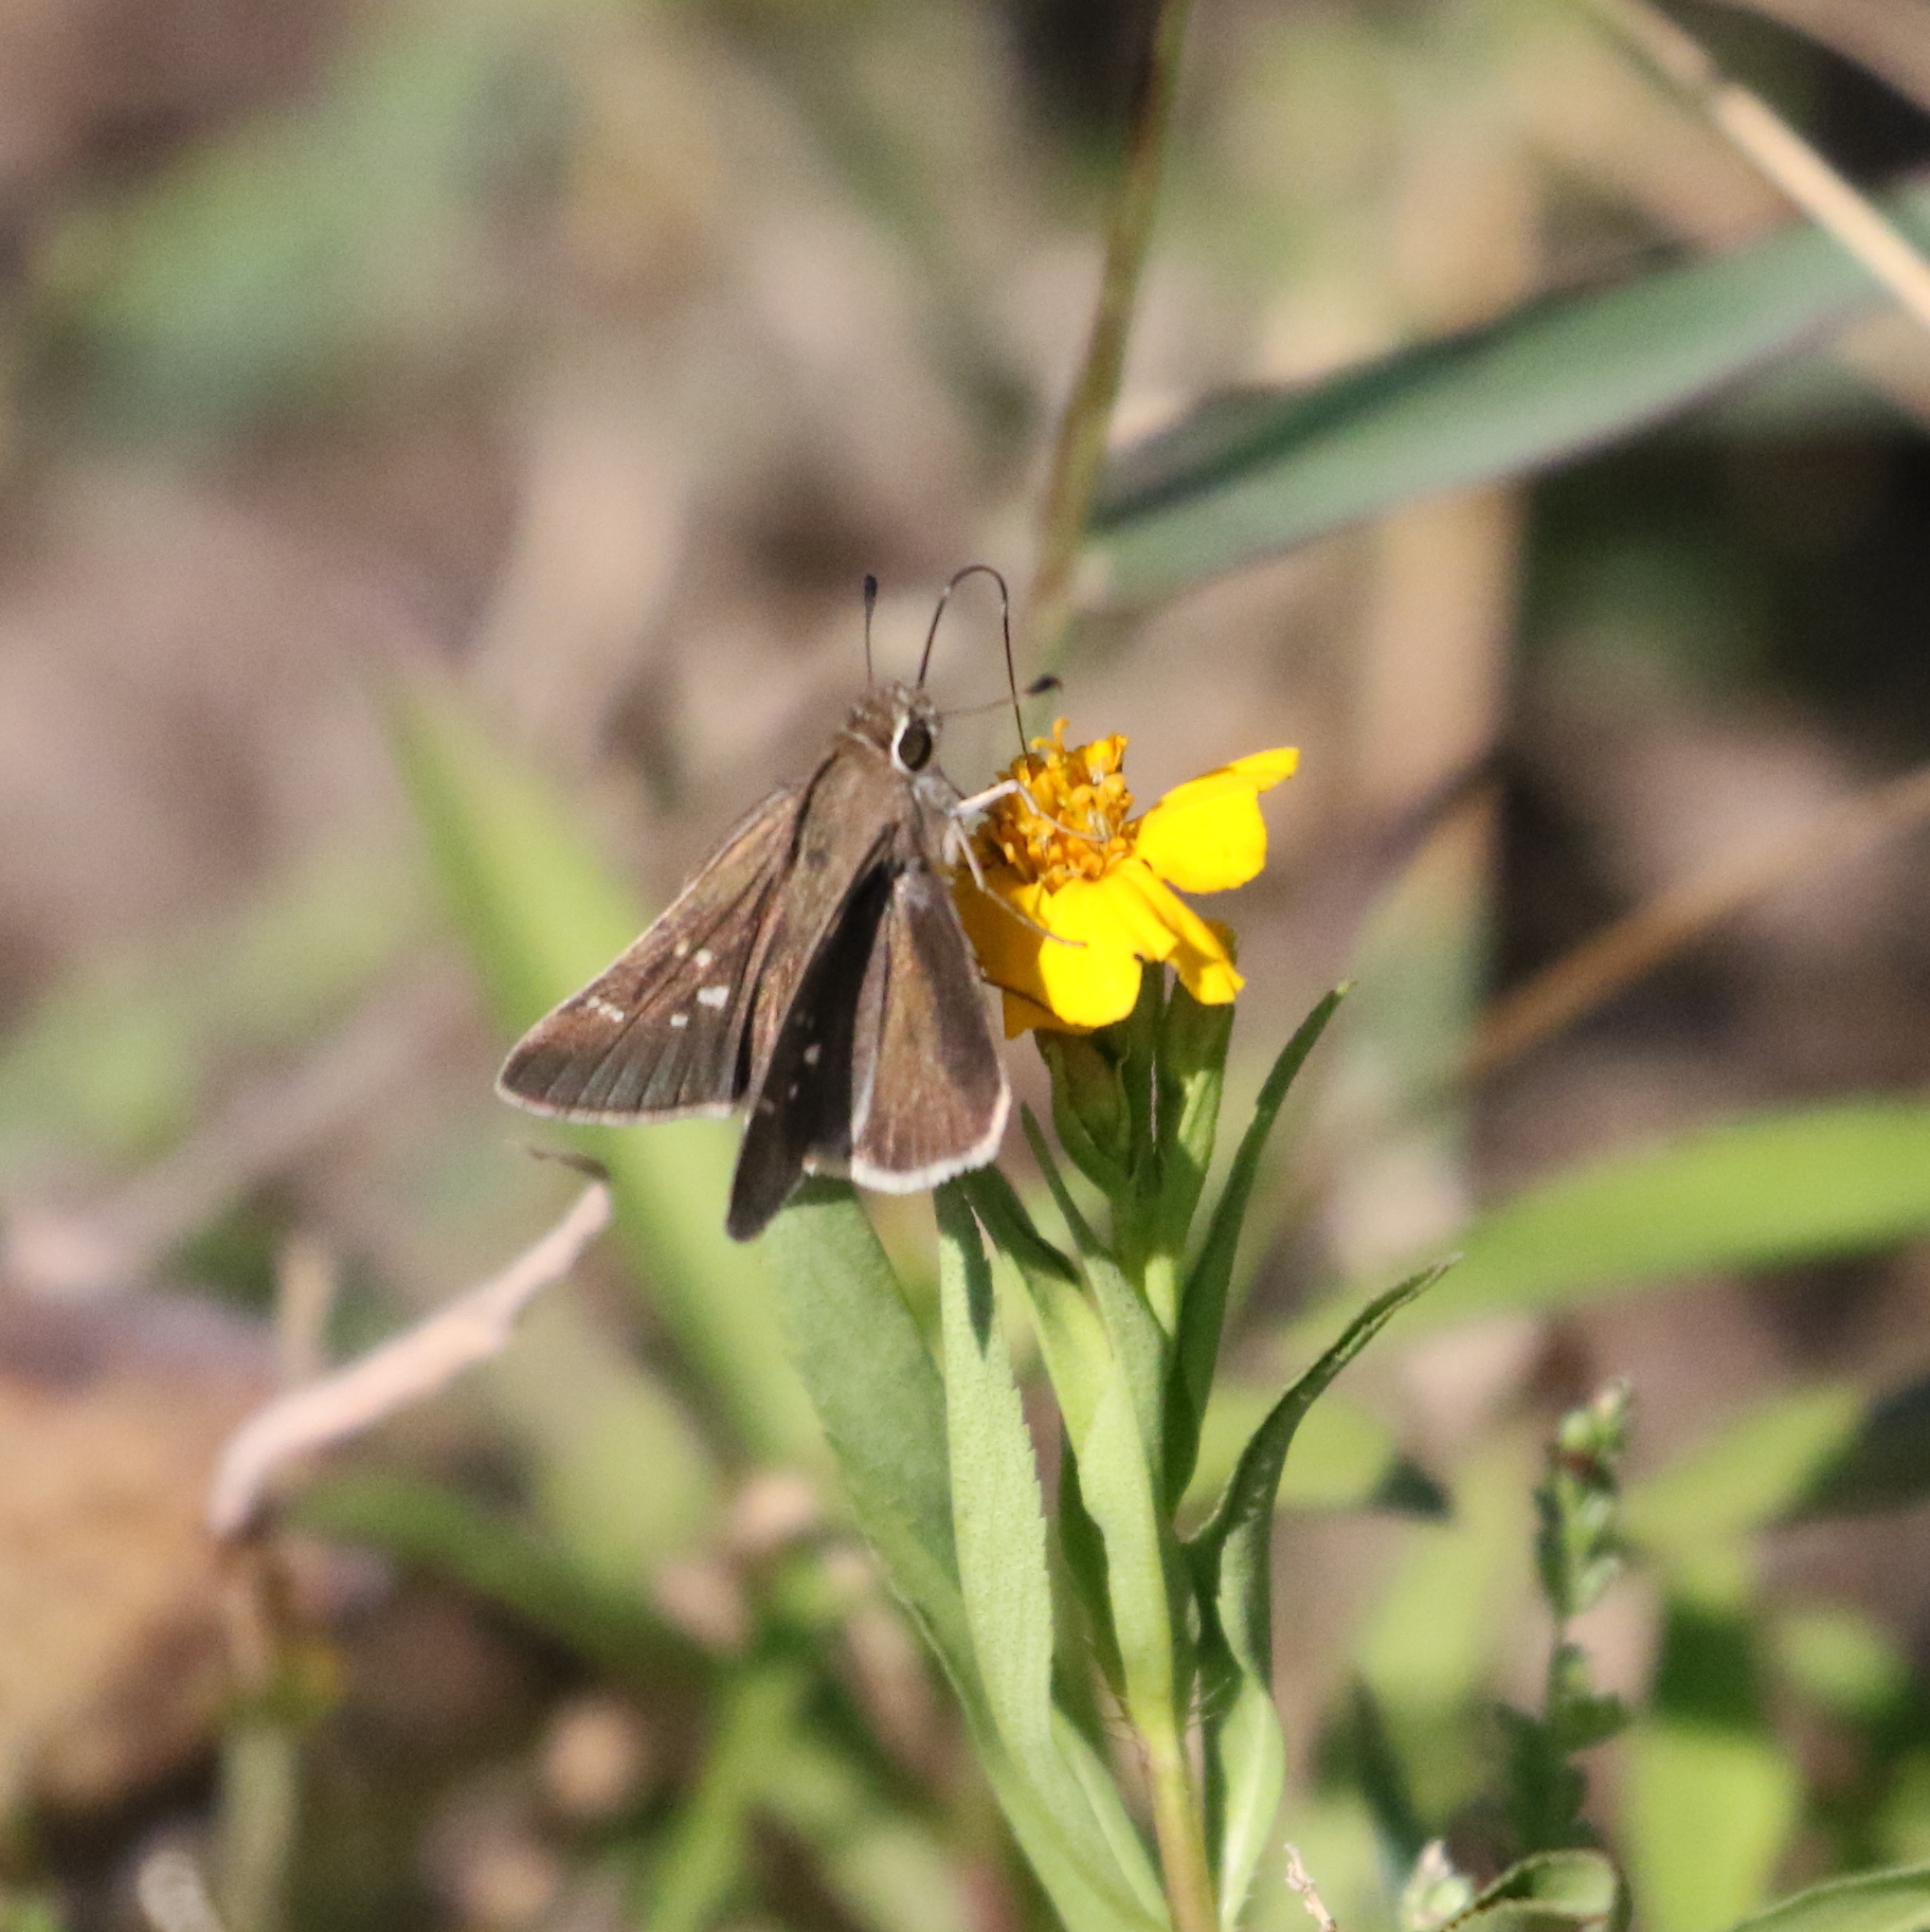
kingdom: Animalia
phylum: Arthropoda
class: Insecta
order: Lepidoptera
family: Hesperiidae
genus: Lerodea
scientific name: Lerodea eufala
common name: Eufala skipper
